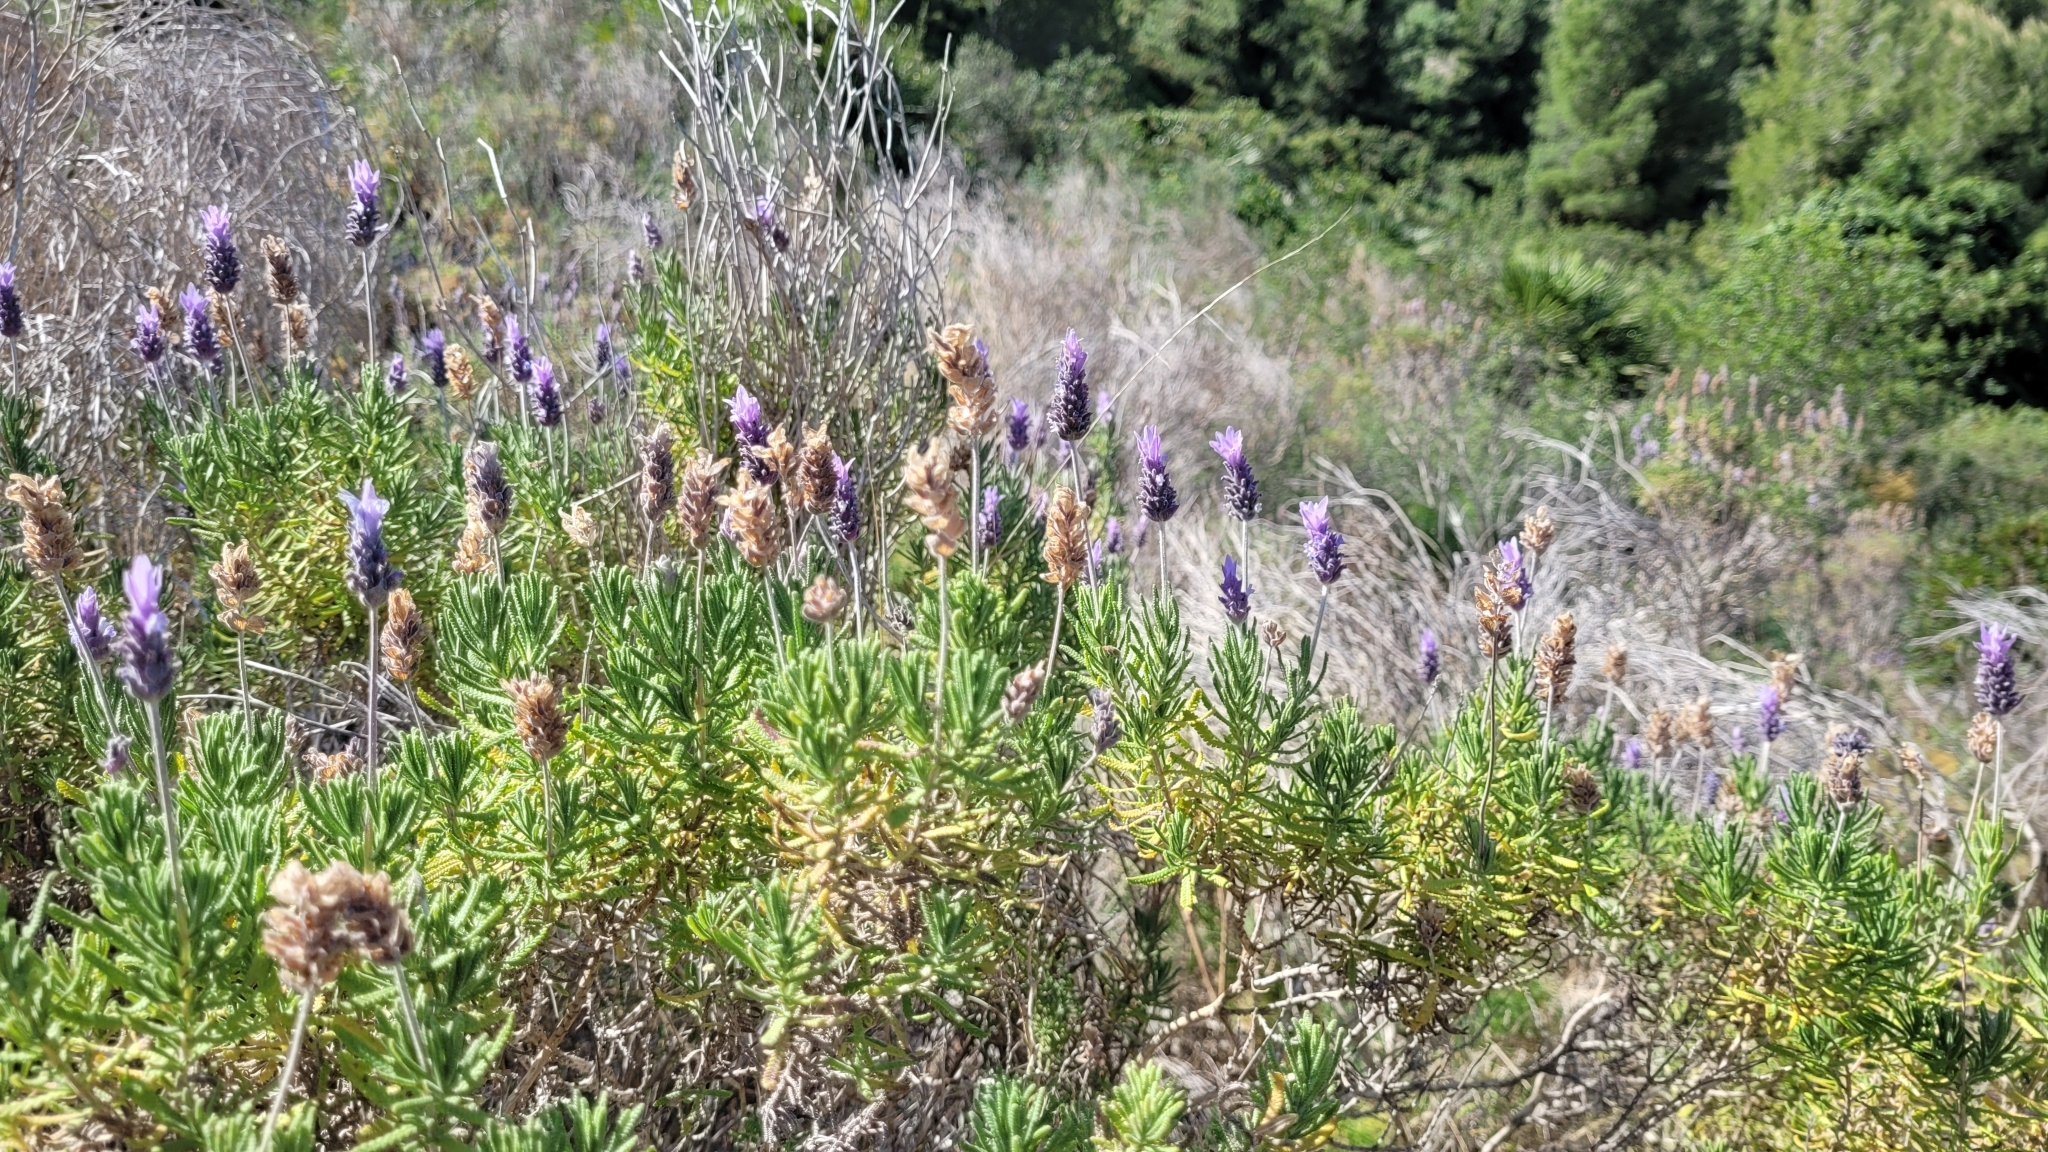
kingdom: Plantae
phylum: Tracheophyta
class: Magnoliopsida
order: Lamiales
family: Lamiaceae
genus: Lavandula
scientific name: Lavandula dentata
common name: French lavender
